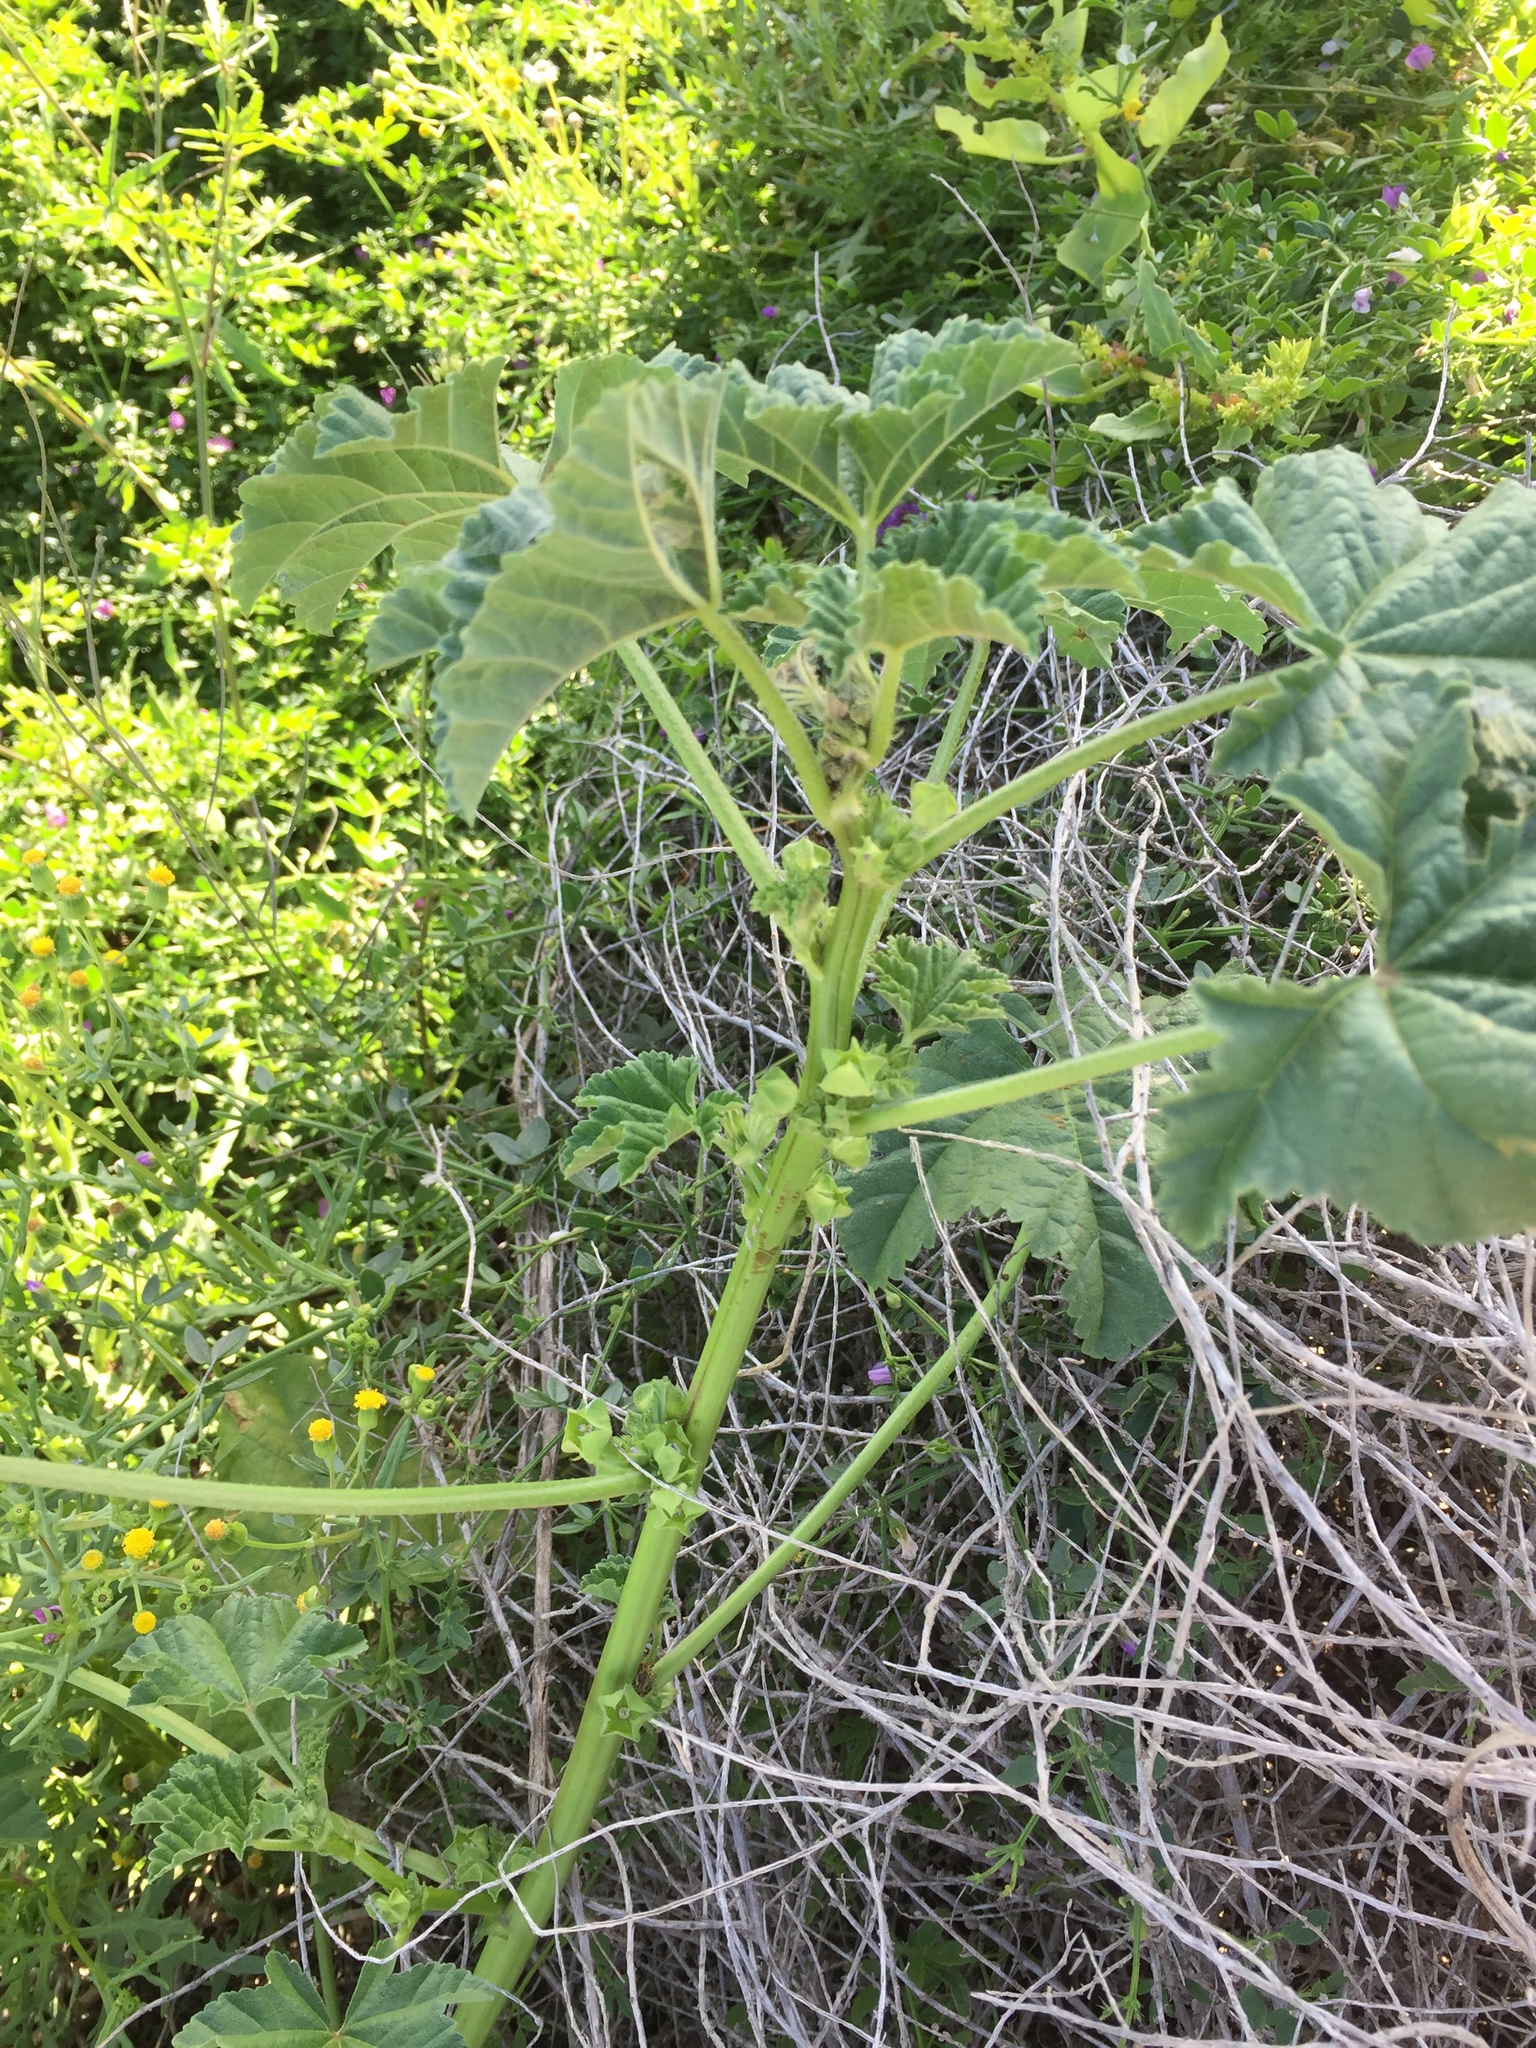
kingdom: Plantae
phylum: Tracheophyta
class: Magnoliopsida
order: Malvales
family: Malvaceae
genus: Malva
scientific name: Malva parviflora
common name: Least mallow
